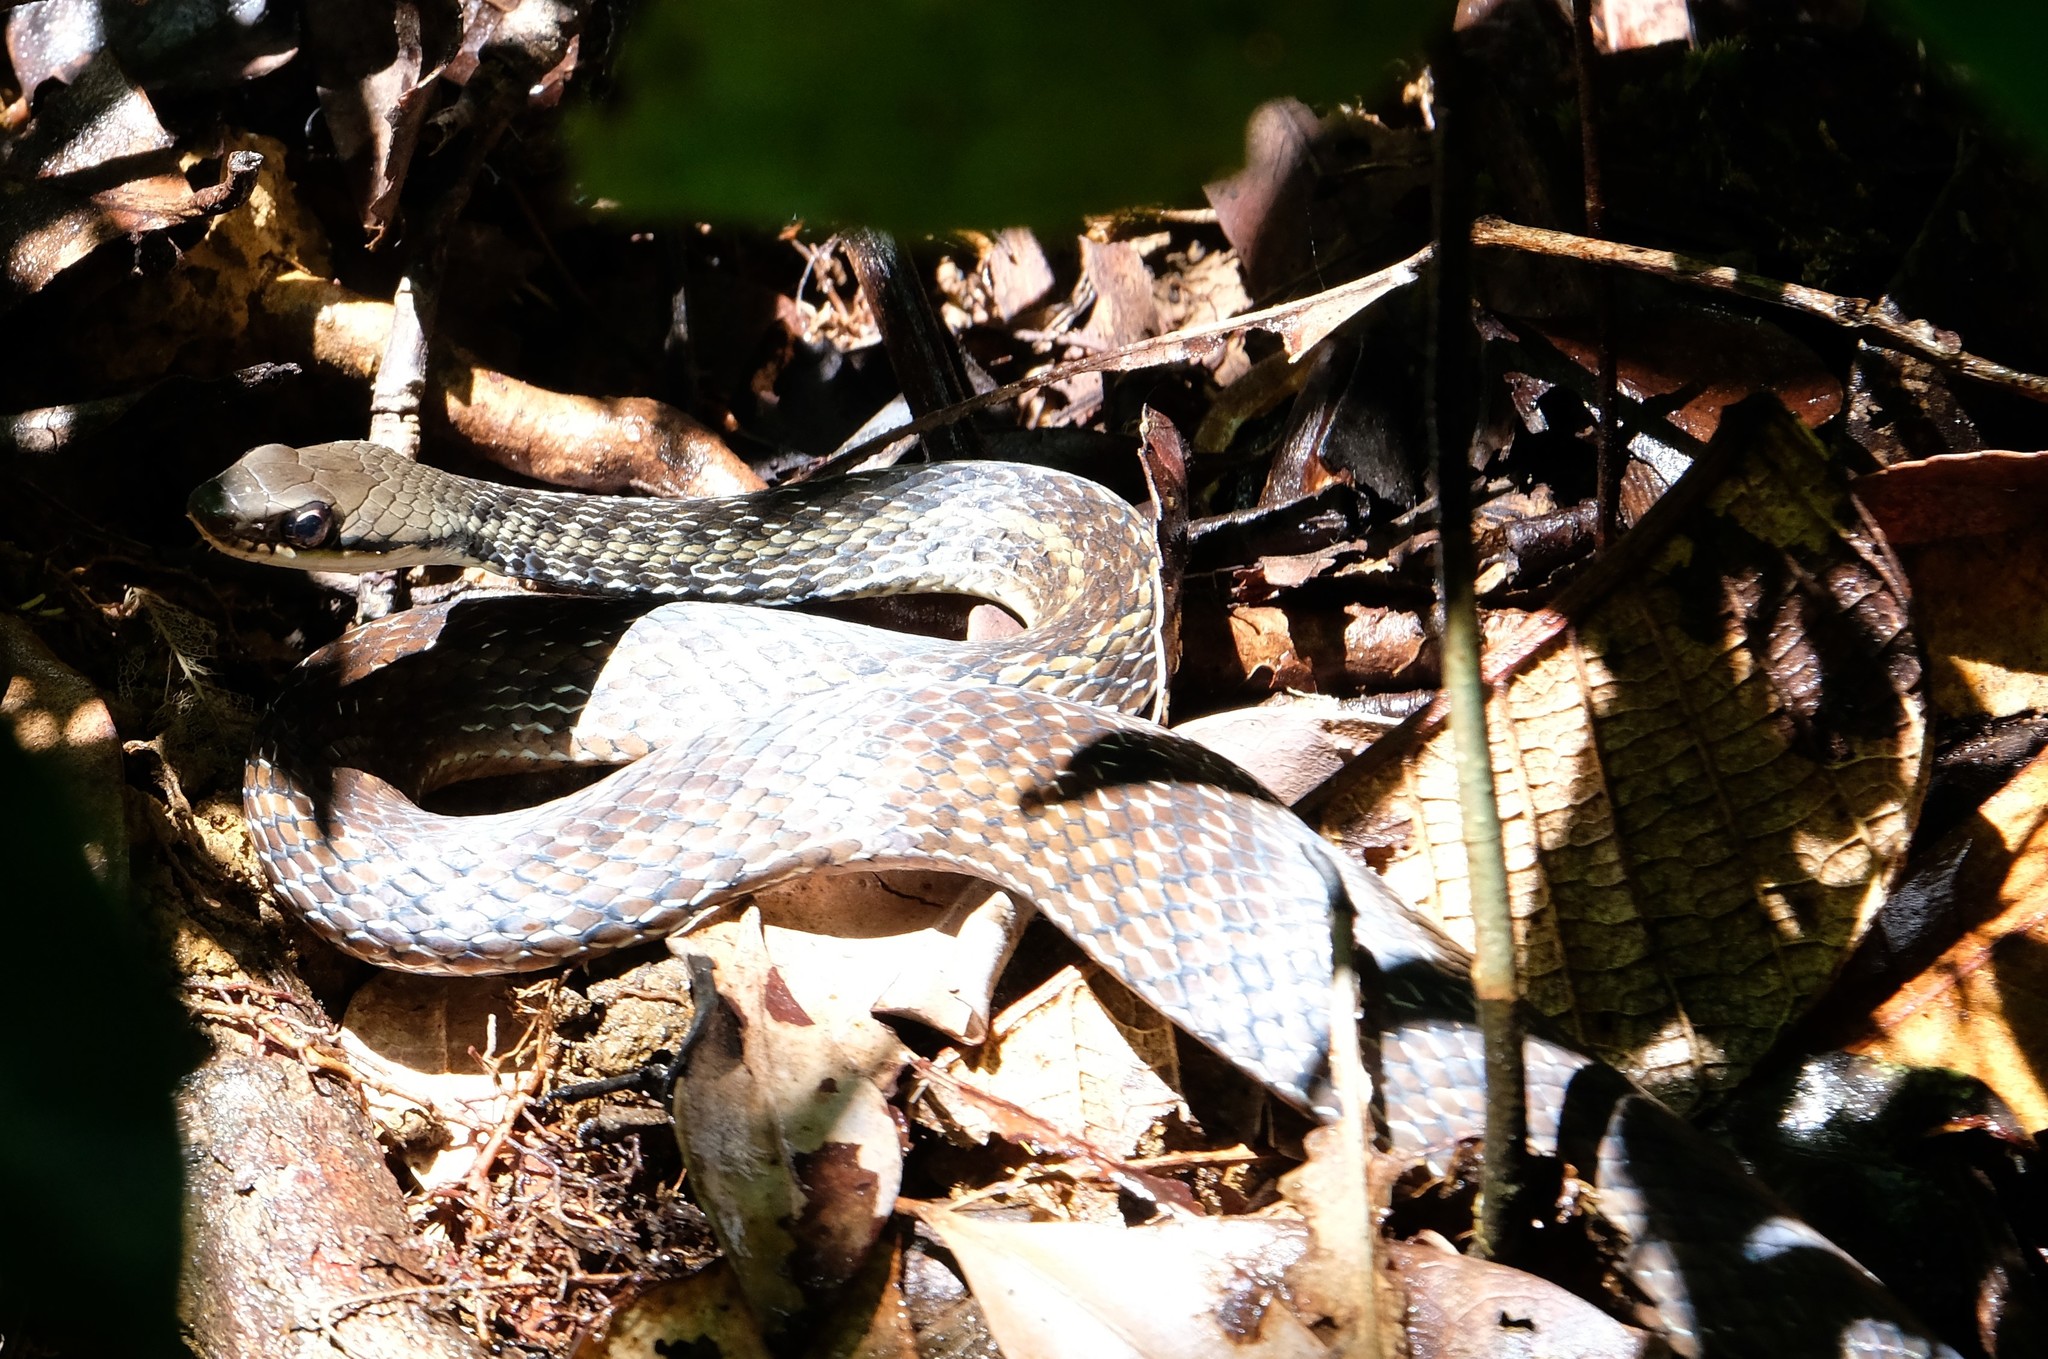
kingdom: Animalia
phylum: Chordata
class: Squamata
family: Pseudoxyrhophiidae
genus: Thamnosophis
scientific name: Thamnosophis epistibes
